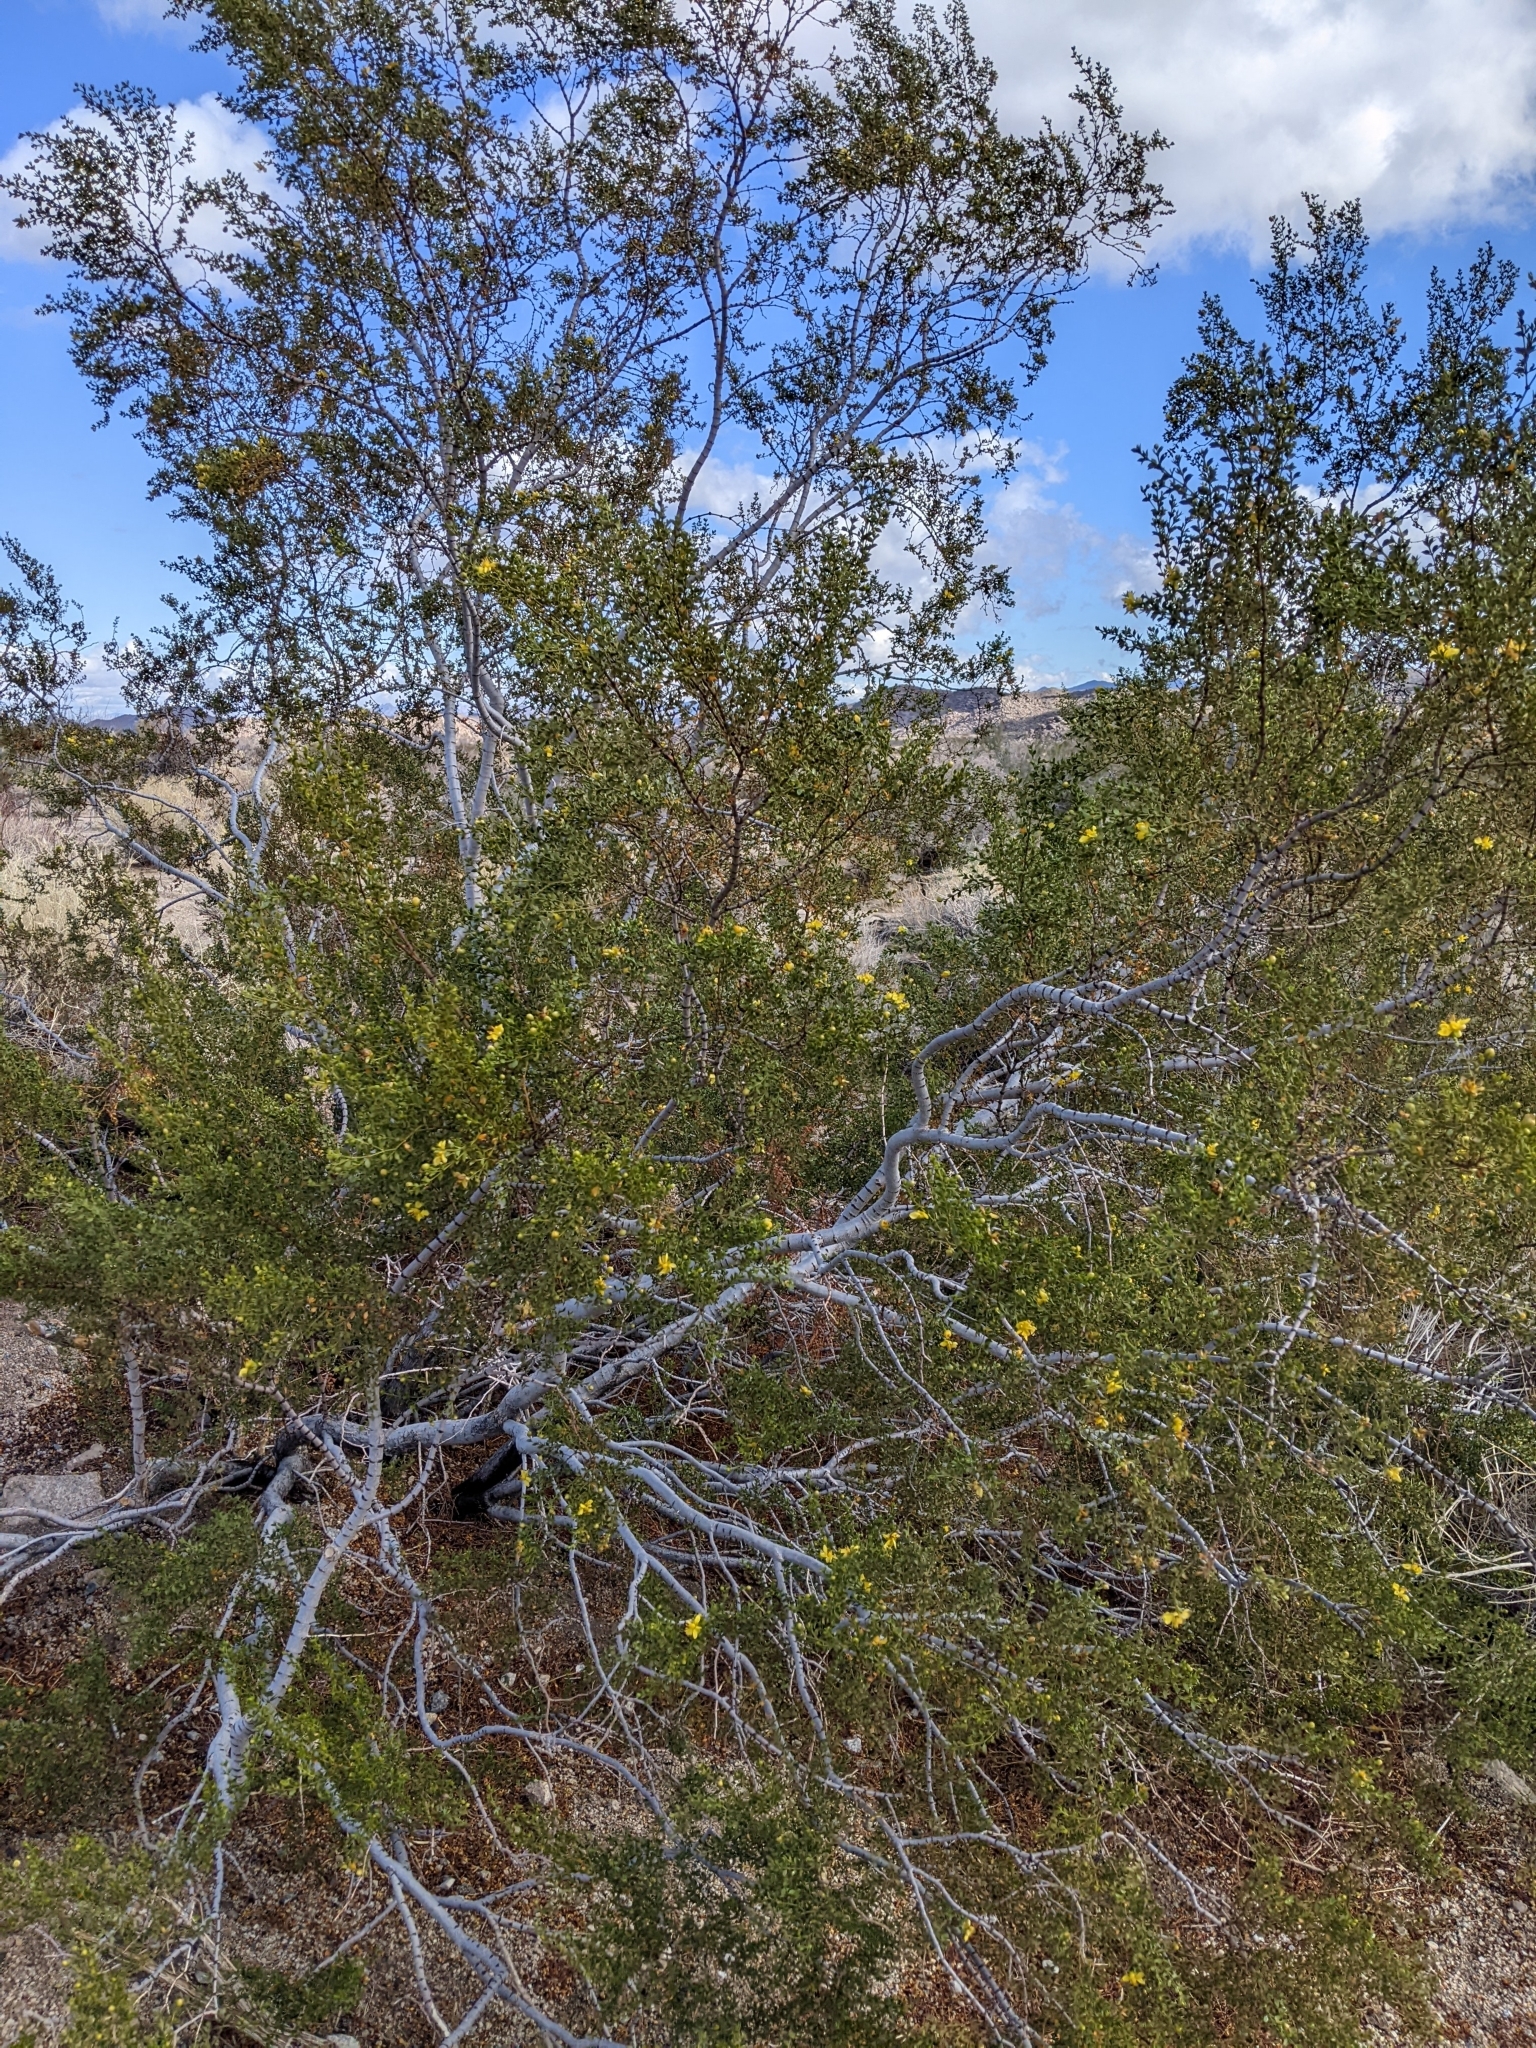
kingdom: Plantae
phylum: Tracheophyta
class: Magnoliopsida
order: Zygophyllales
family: Zygophyllaceae
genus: Larrea
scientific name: Larrea tridentata
